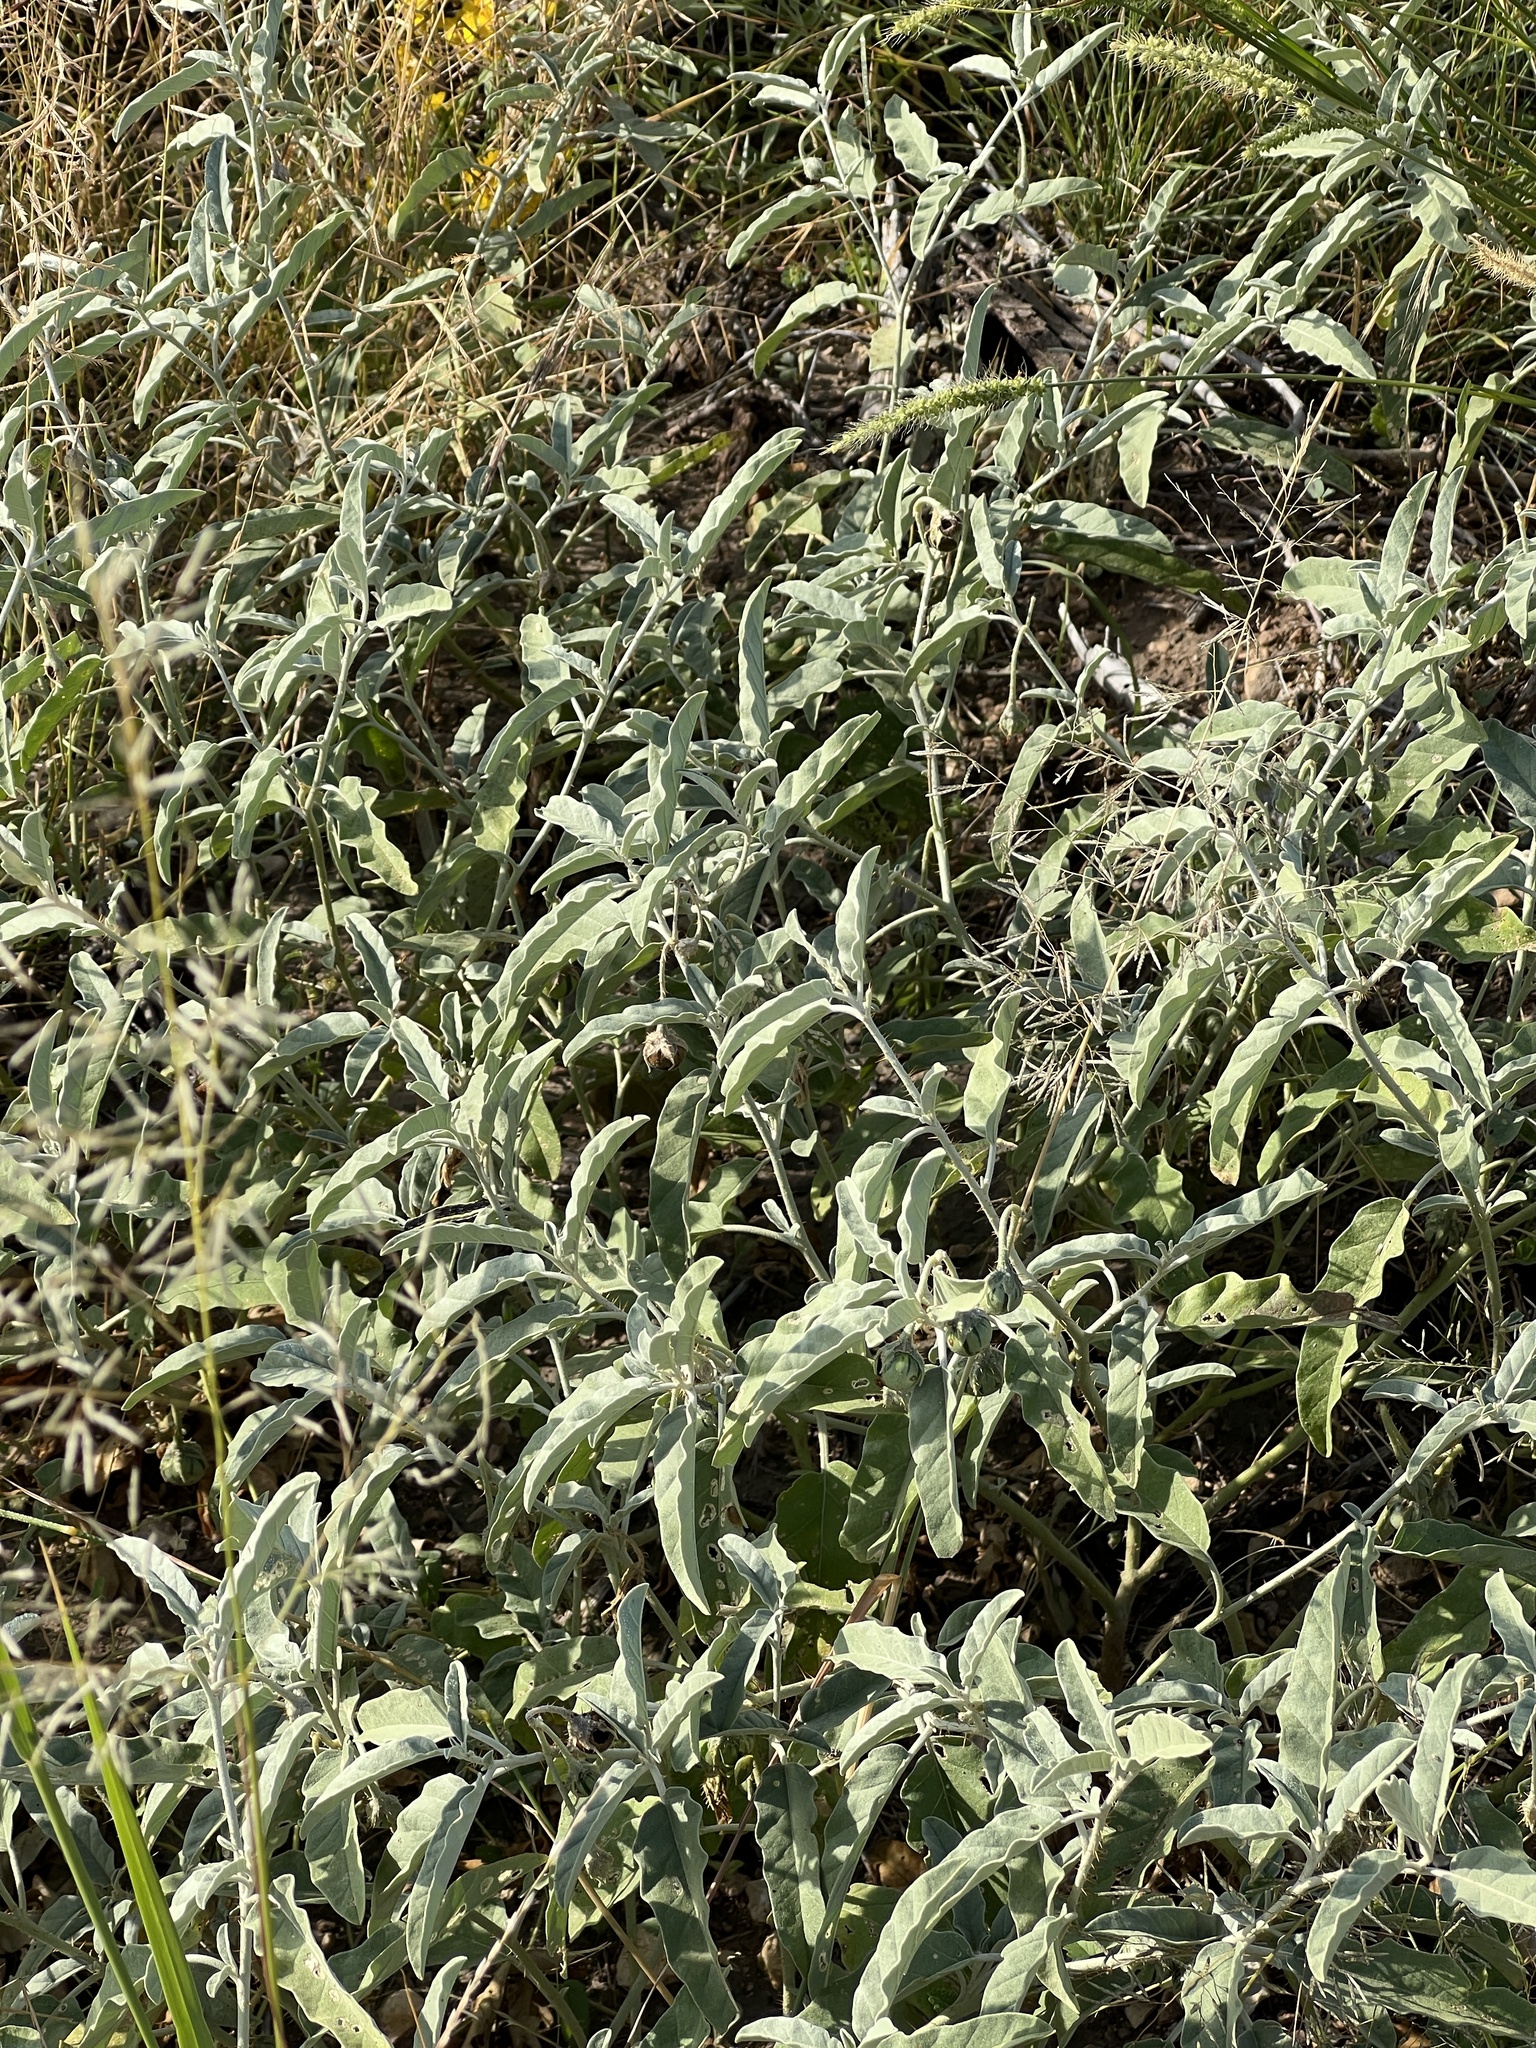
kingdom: Plantae
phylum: Tracheophyta
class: Magnoliopsida
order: Solanales
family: Solanaceae
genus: Solanum
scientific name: Solanum elaeagnifolium
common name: Silverleaf nightshade
